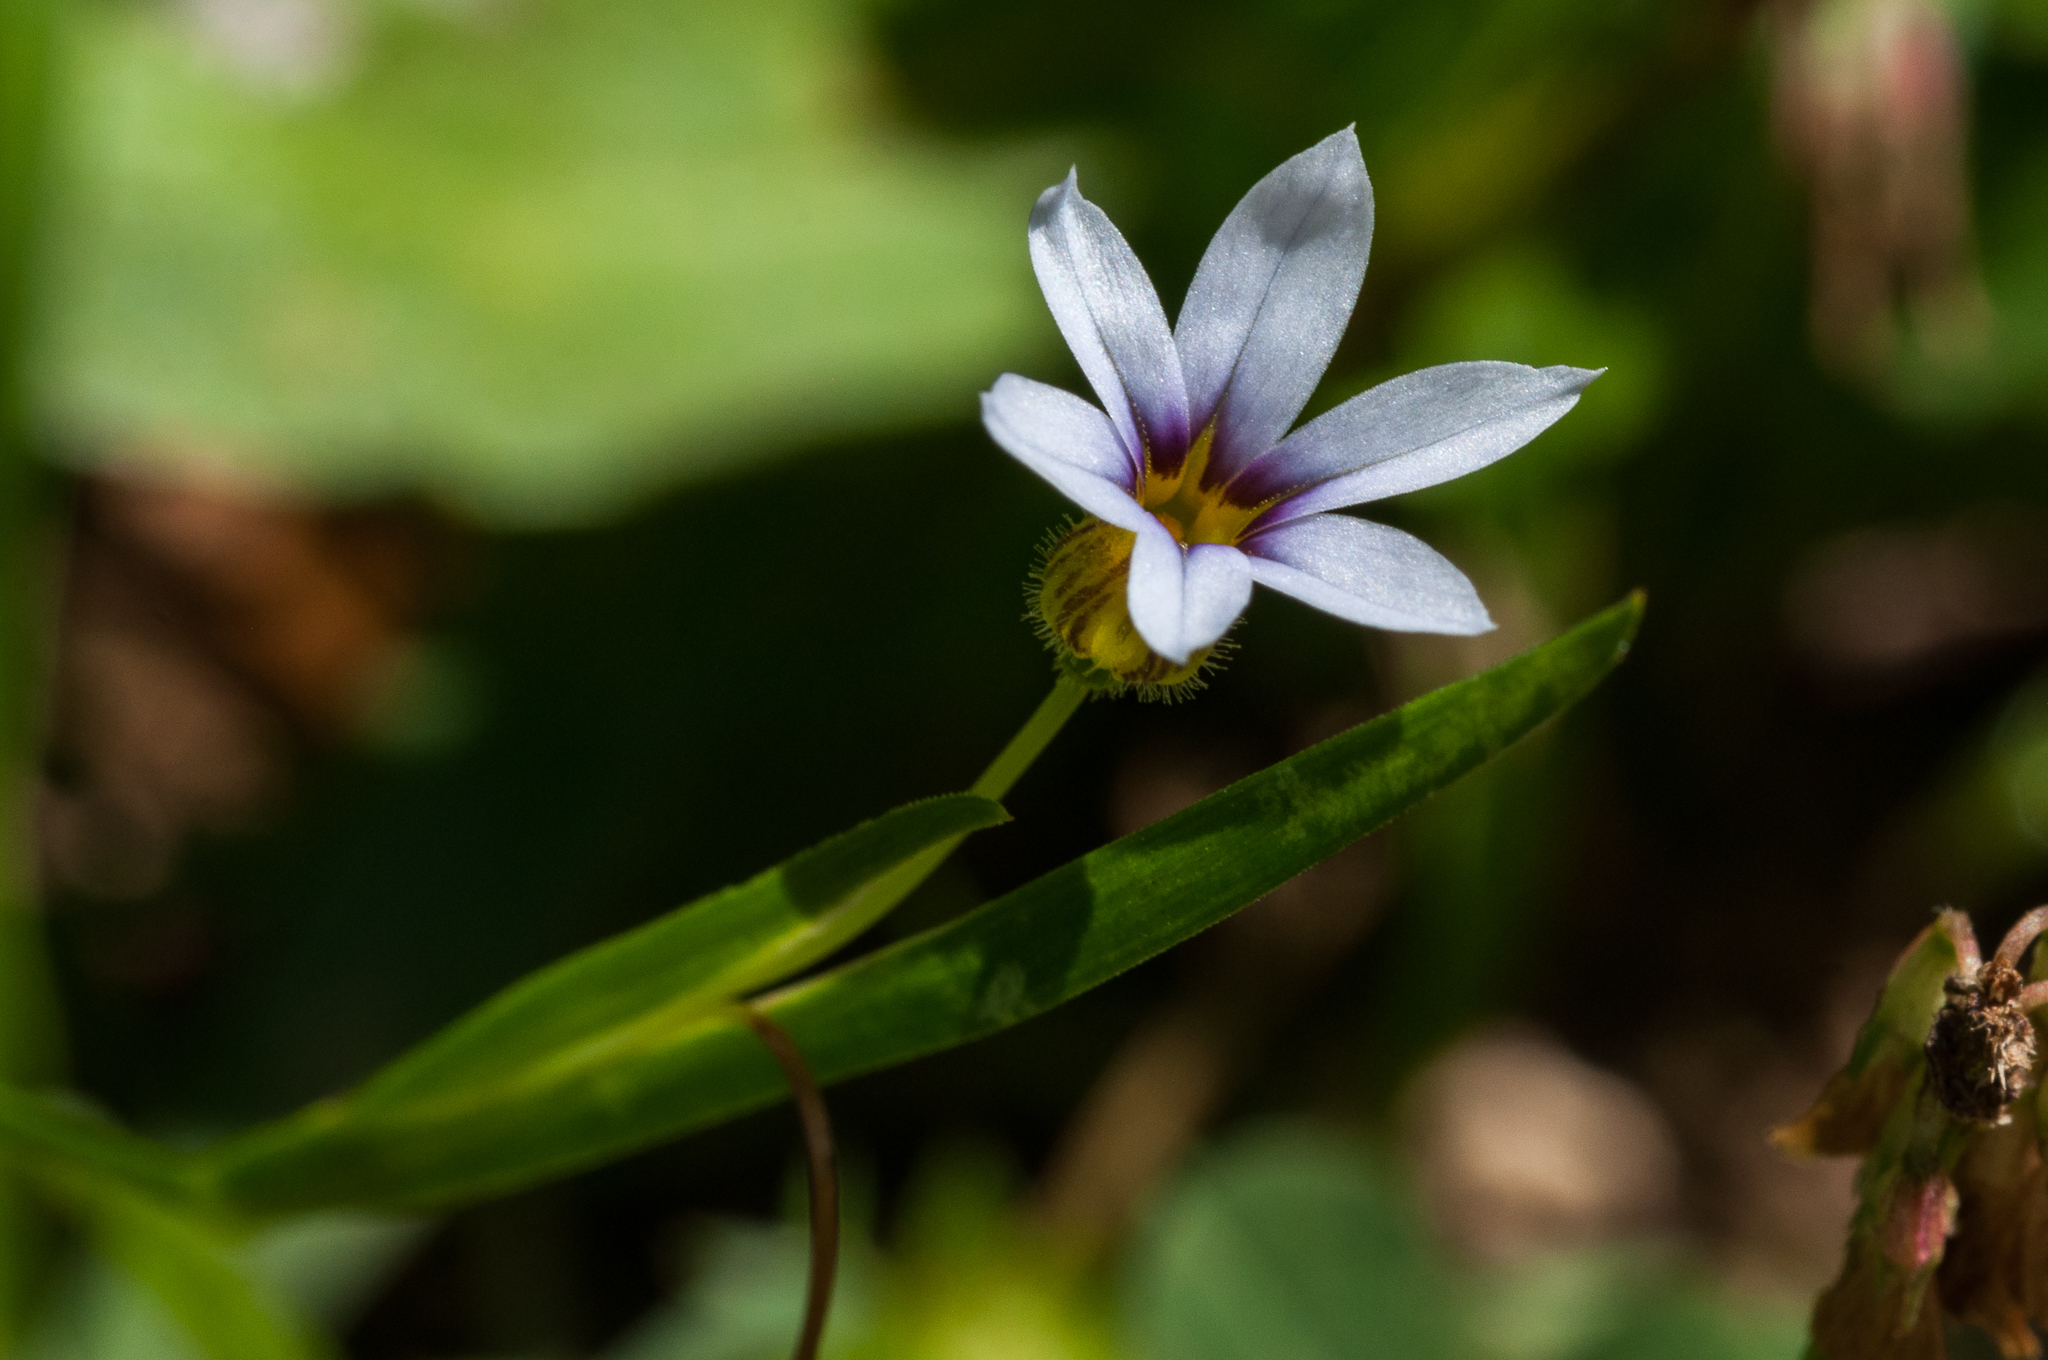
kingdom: Plantae
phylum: Tracheophyta
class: Liliopsida
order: Asparagales
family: Iridaceae
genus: Sisyrinchium
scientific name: Sisyrinchium micranthum
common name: Bermuda pigroot
